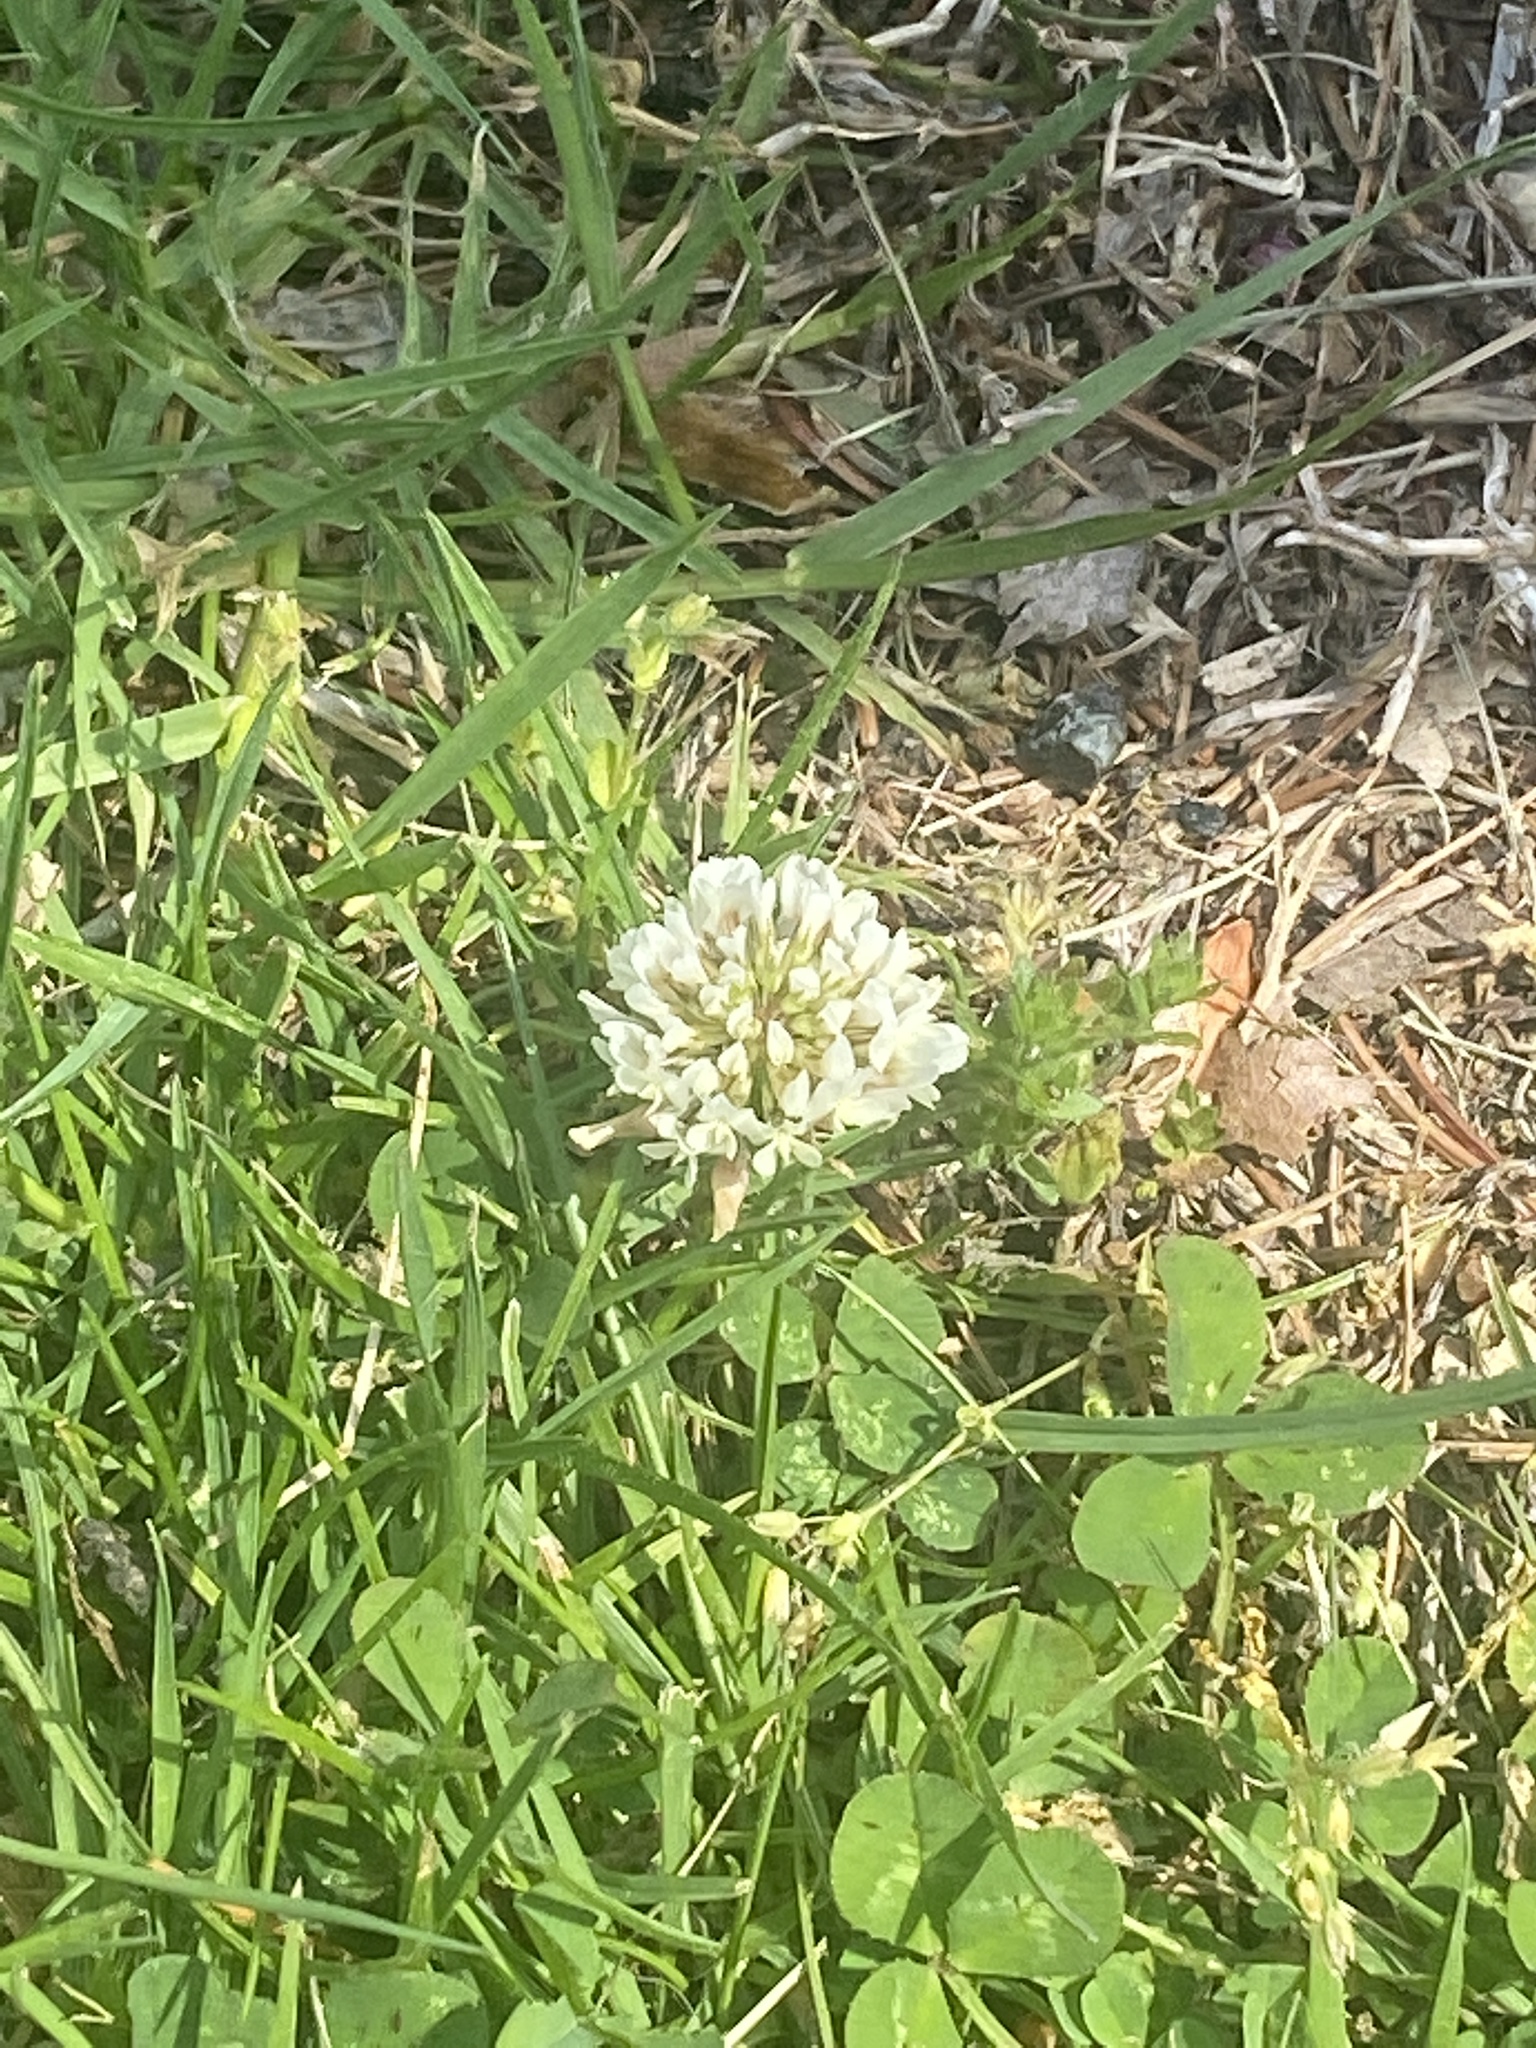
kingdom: Plantae
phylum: Tracheophyta
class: Magnoliopsida
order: Fabales
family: Fabaceae
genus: Trifolium
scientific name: Trifolium repens
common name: White clover
